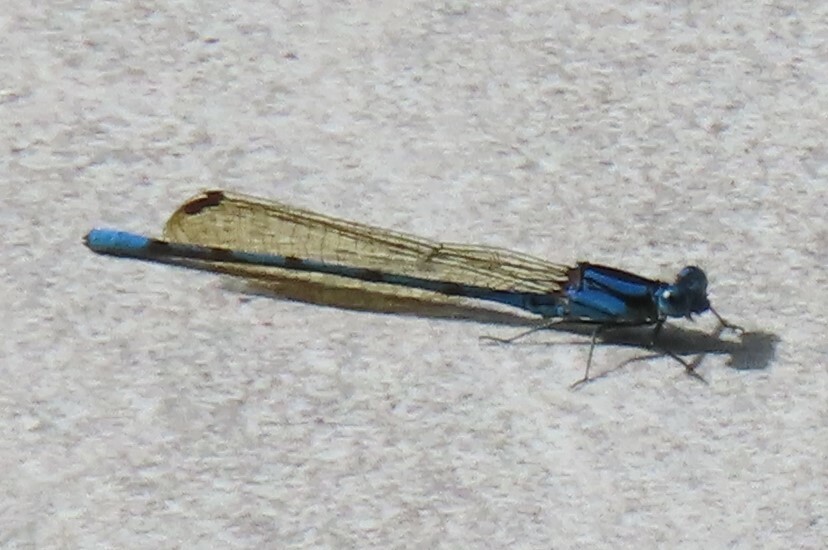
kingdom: Animalia
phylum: Arthropoda
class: Insecta
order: Odonata
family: Coenagrionidae
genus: Argia
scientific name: Argia fissa
